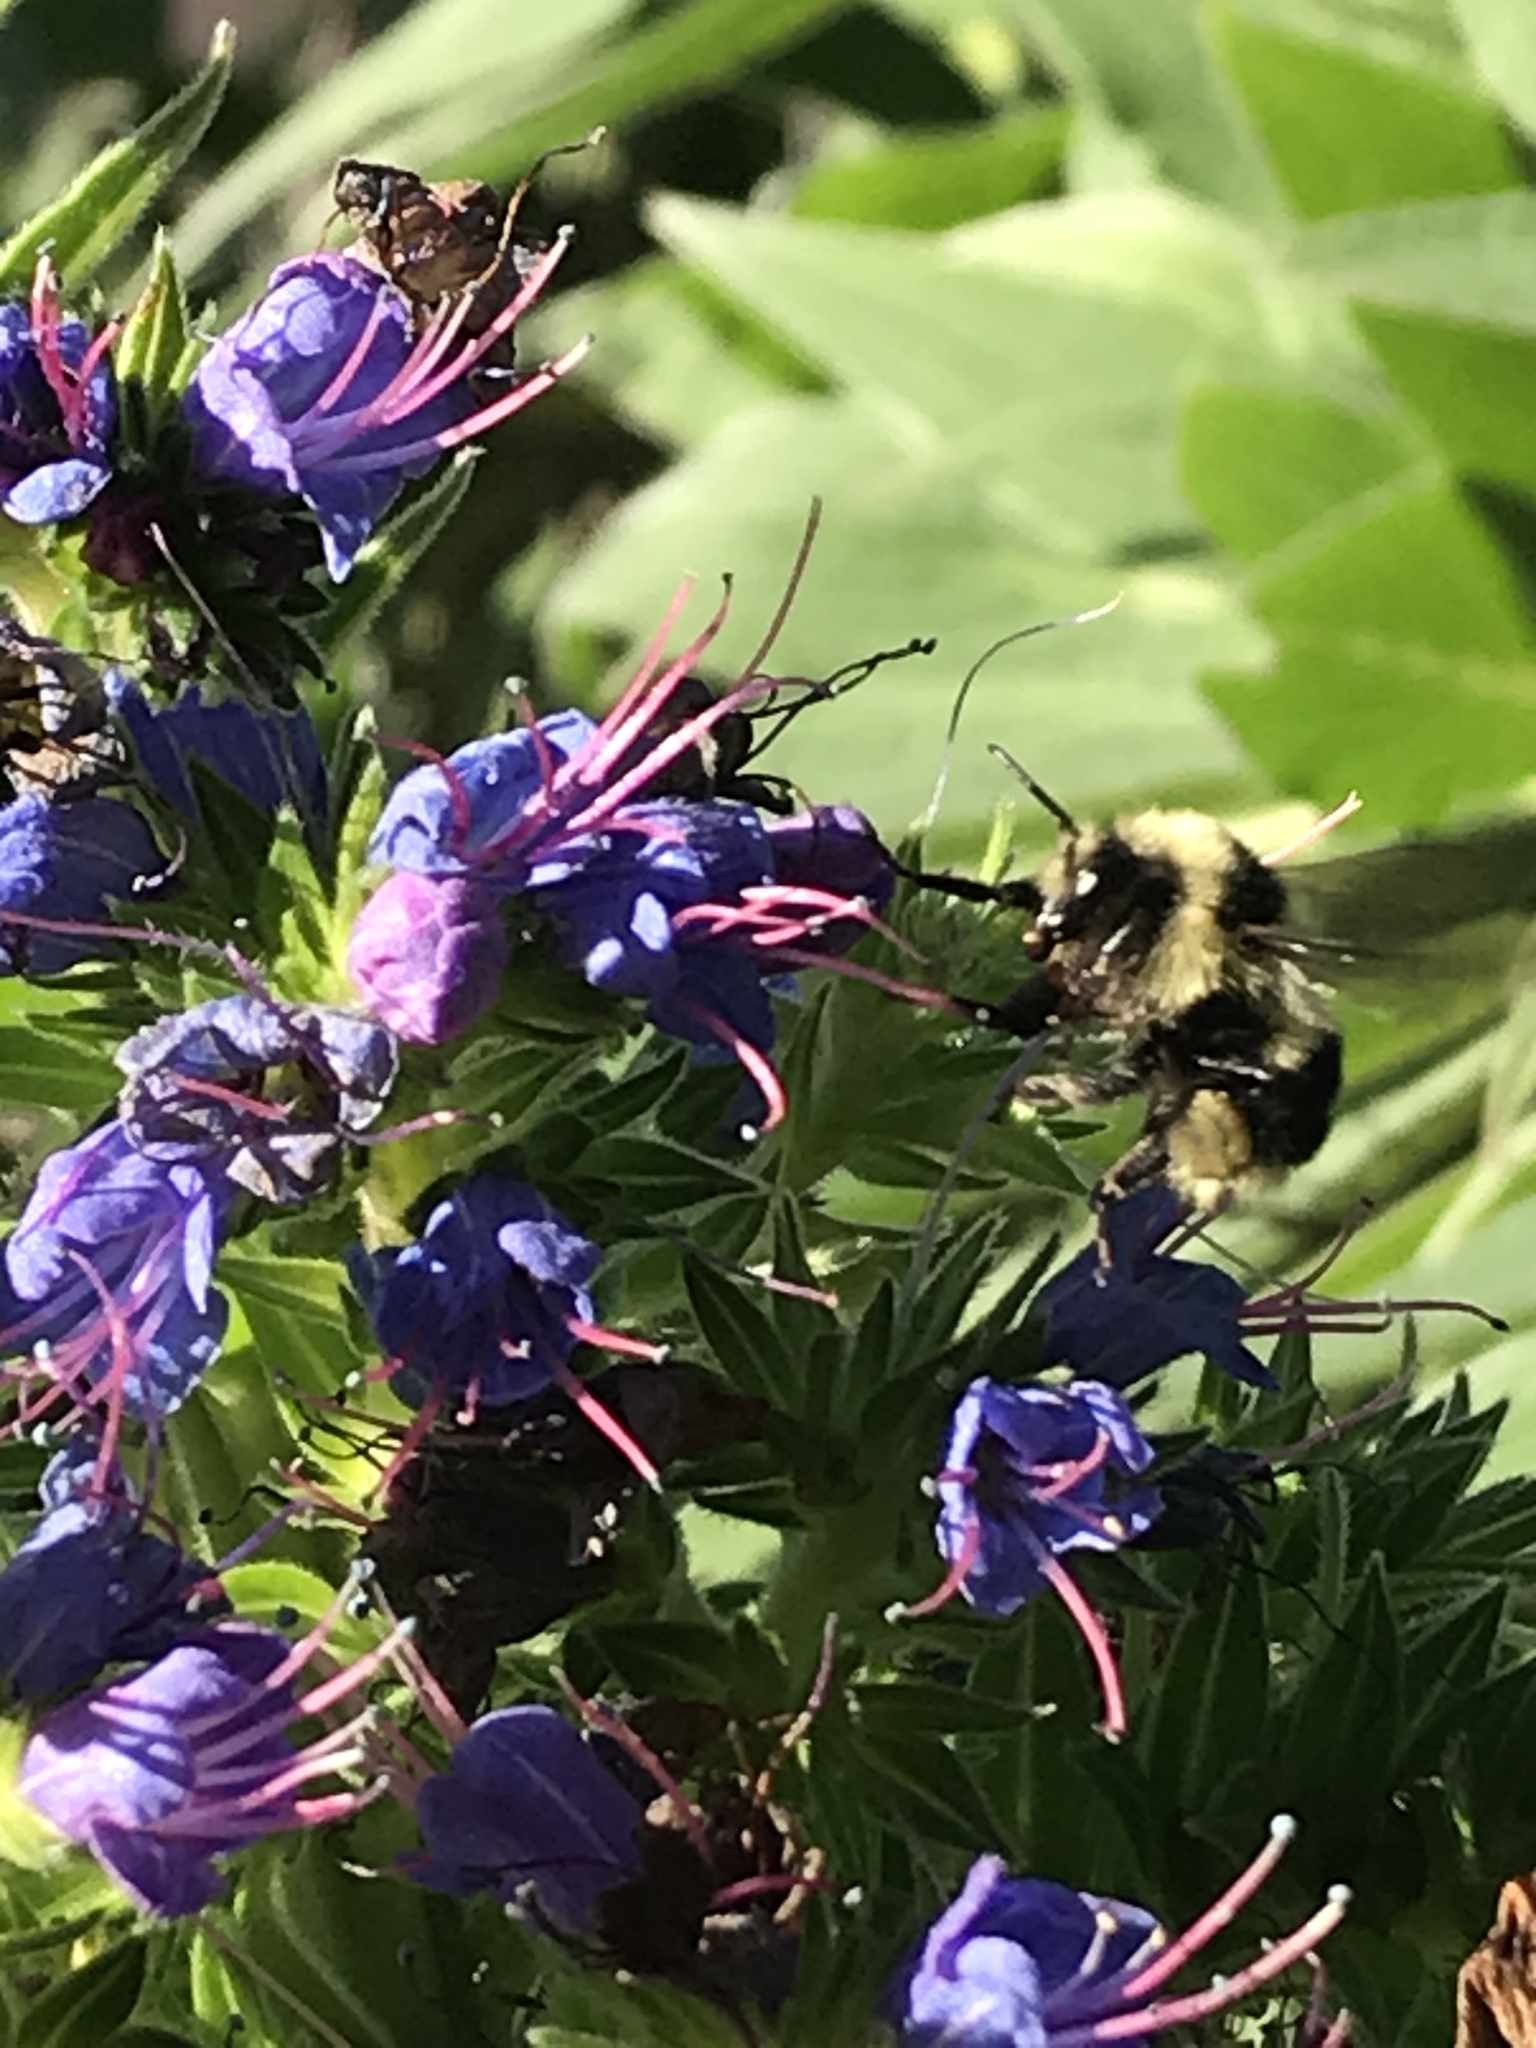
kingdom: Animalia
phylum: Arthropoda
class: Insecta
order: Hymenoptera
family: Apidae
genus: Bombus
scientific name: Bombus melanopygus
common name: Black tail bumble bee
